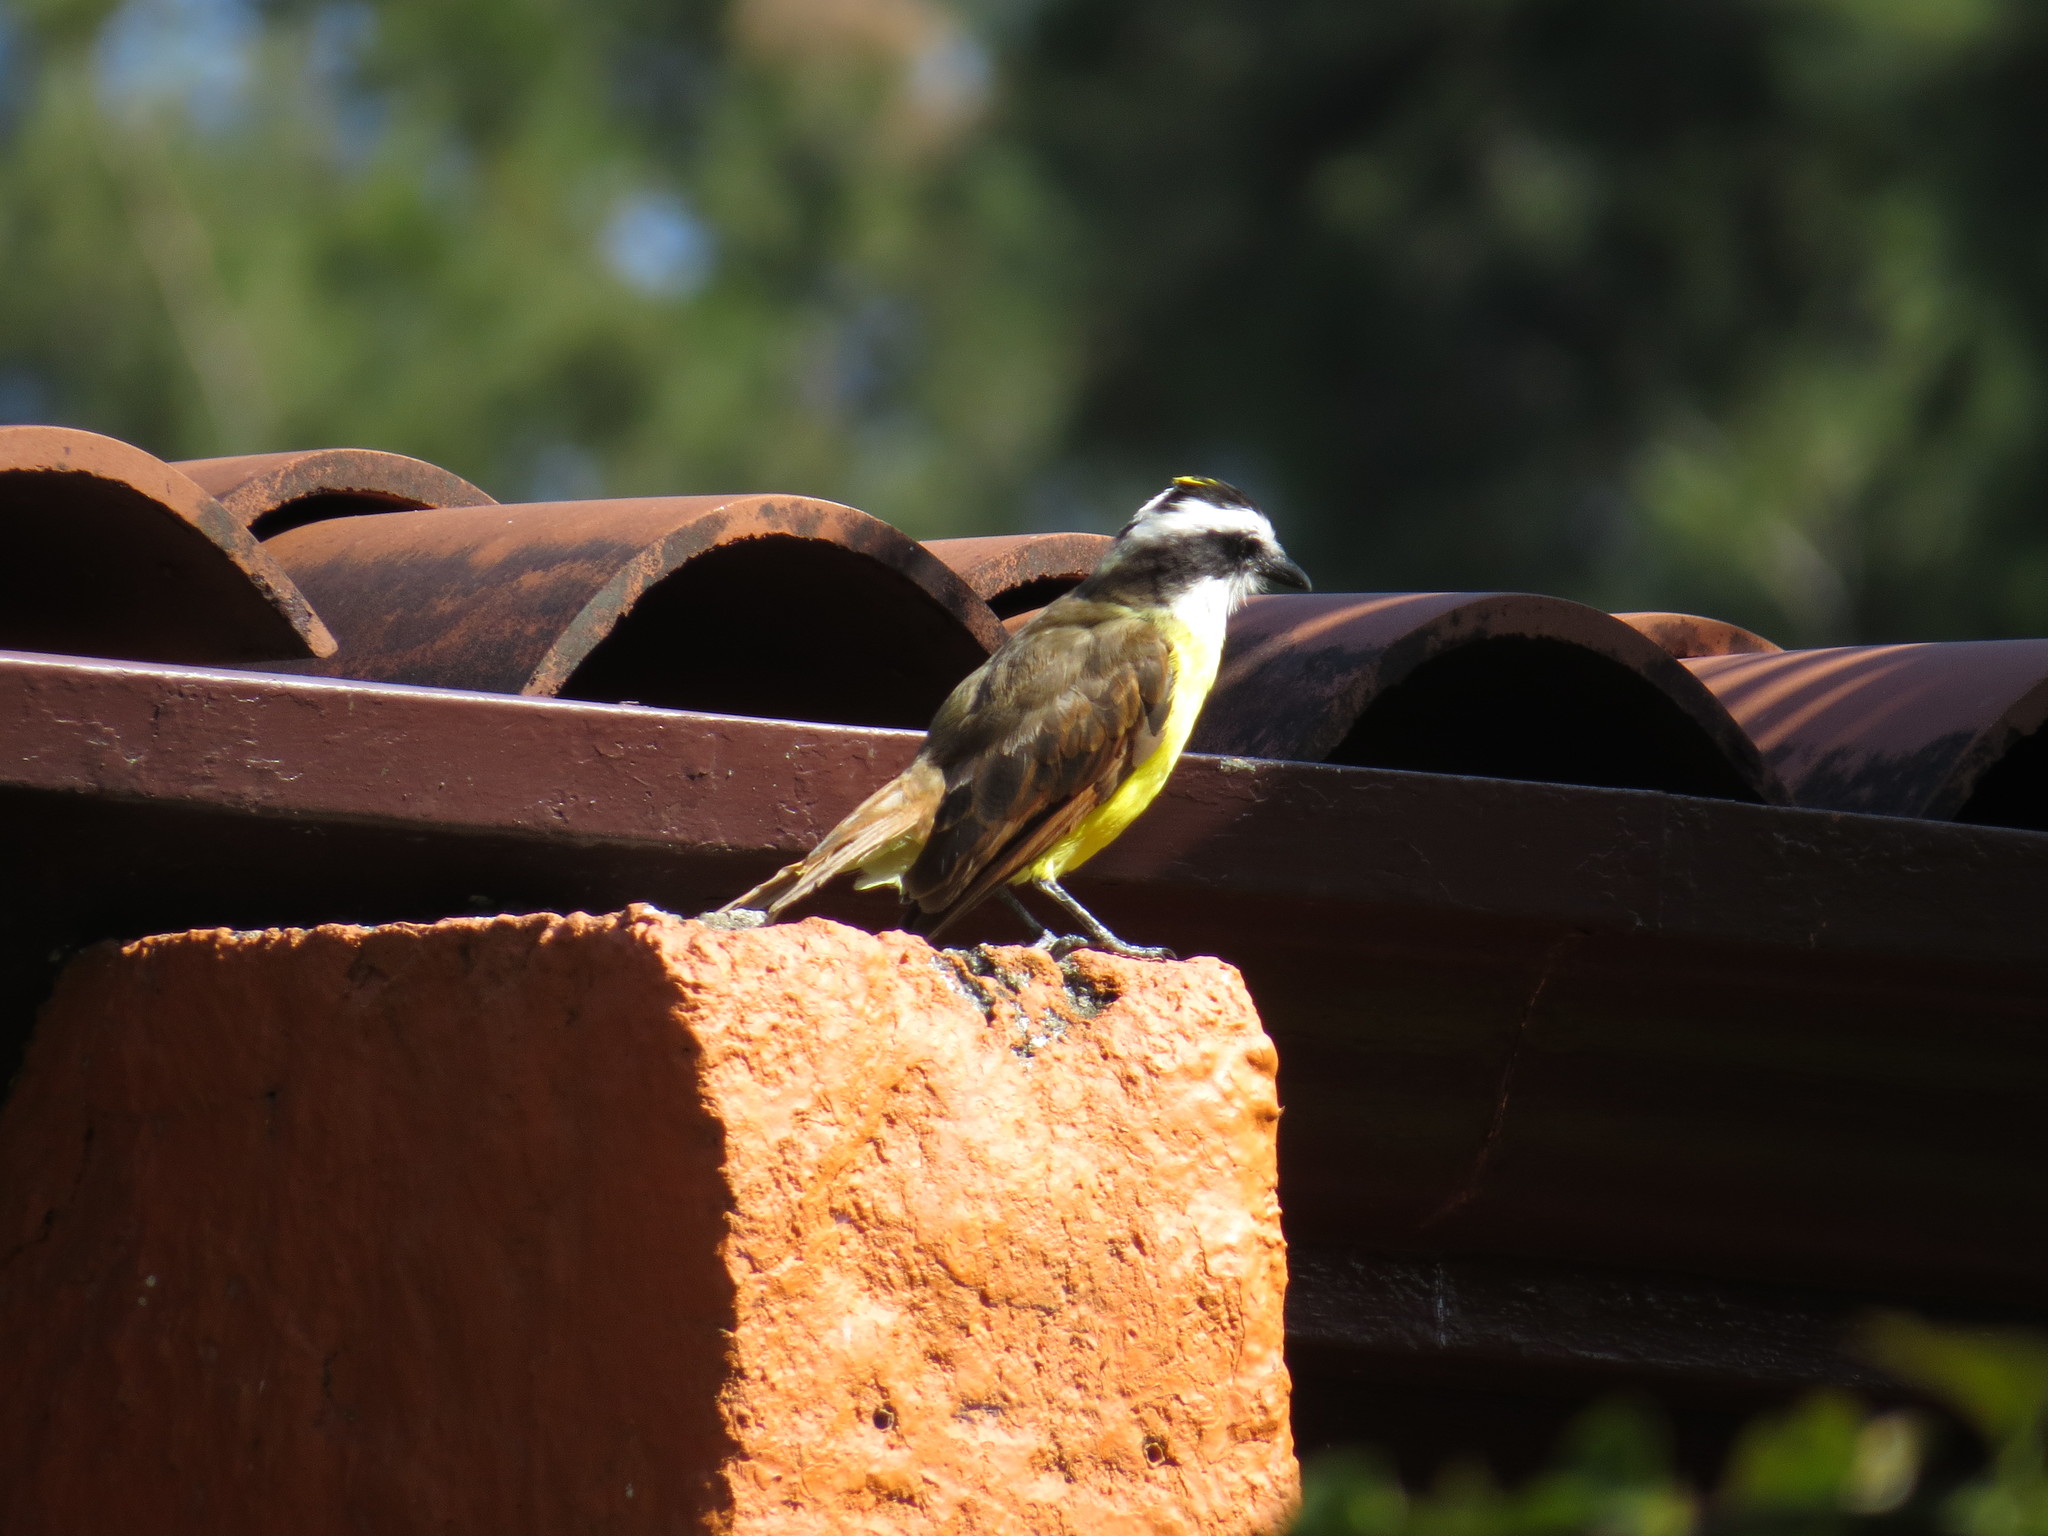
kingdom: Animalia
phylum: Chordata
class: Aves
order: Passeriformes
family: Tyrannidae
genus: Pitangus
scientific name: Pitangus sulphuratus
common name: Great kiskadee
